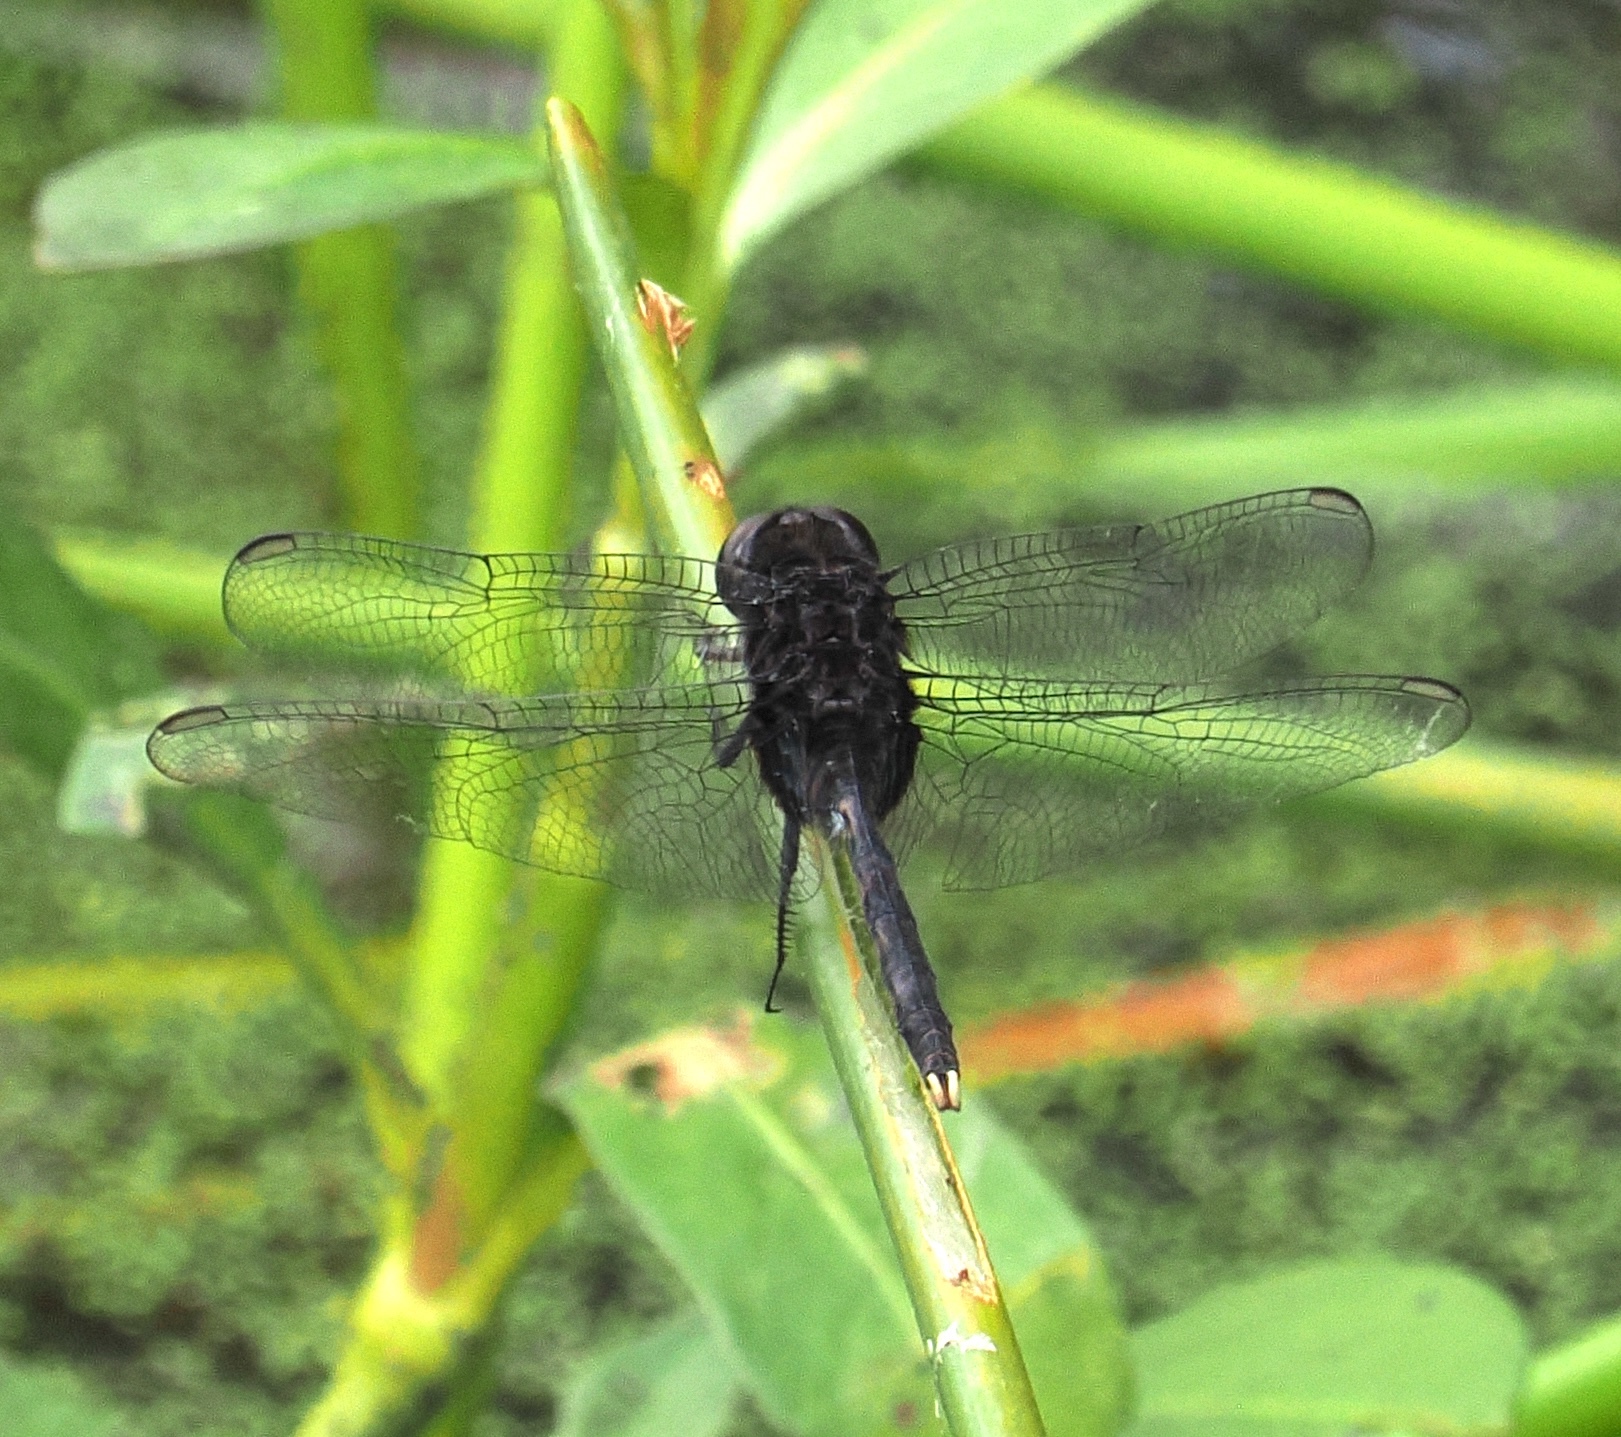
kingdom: Animalia
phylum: Arthropoda
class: Insecta
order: Odonata
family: Libellulidae
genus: Erythemis
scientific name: Erythemis plebeja
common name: Pin-tailed pondhawk
